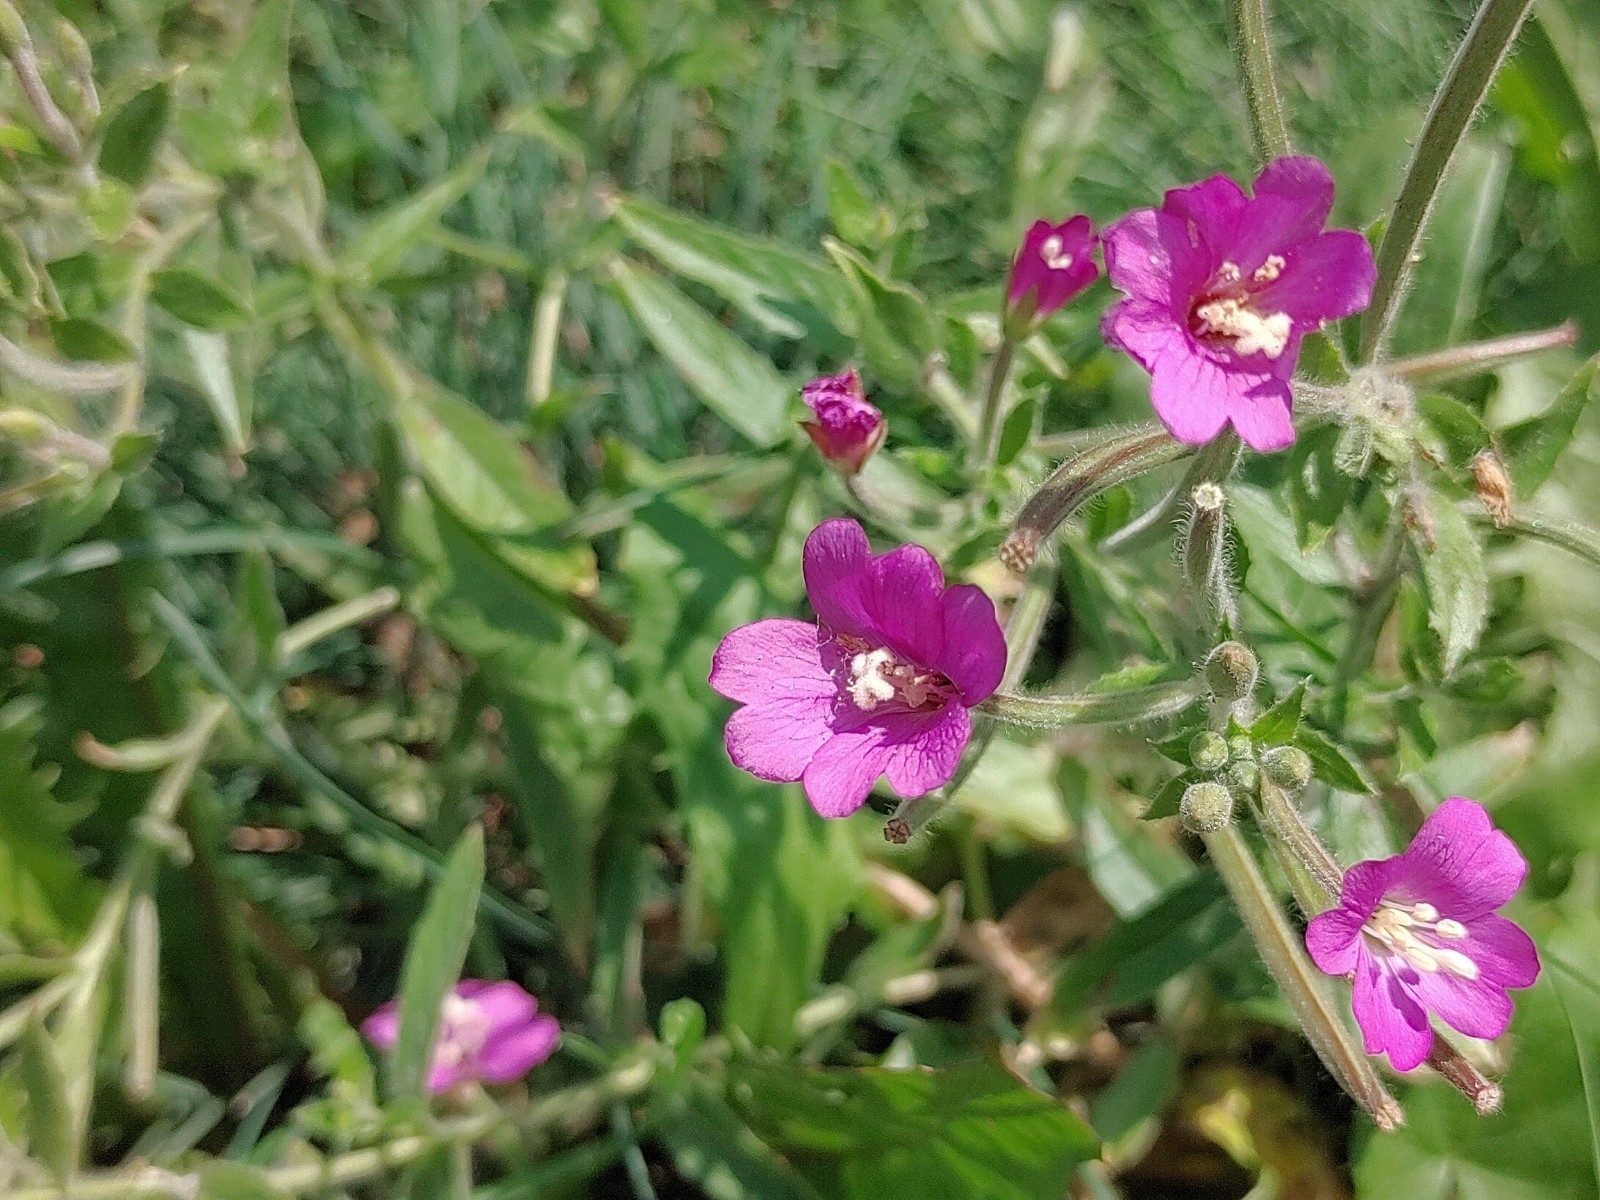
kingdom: Plantae
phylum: Tracheophyta
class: Magnoliopsida
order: Myrtales
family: Onagraceae
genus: Epilobium
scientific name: Epilobium hirsutum
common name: Great willowherb
